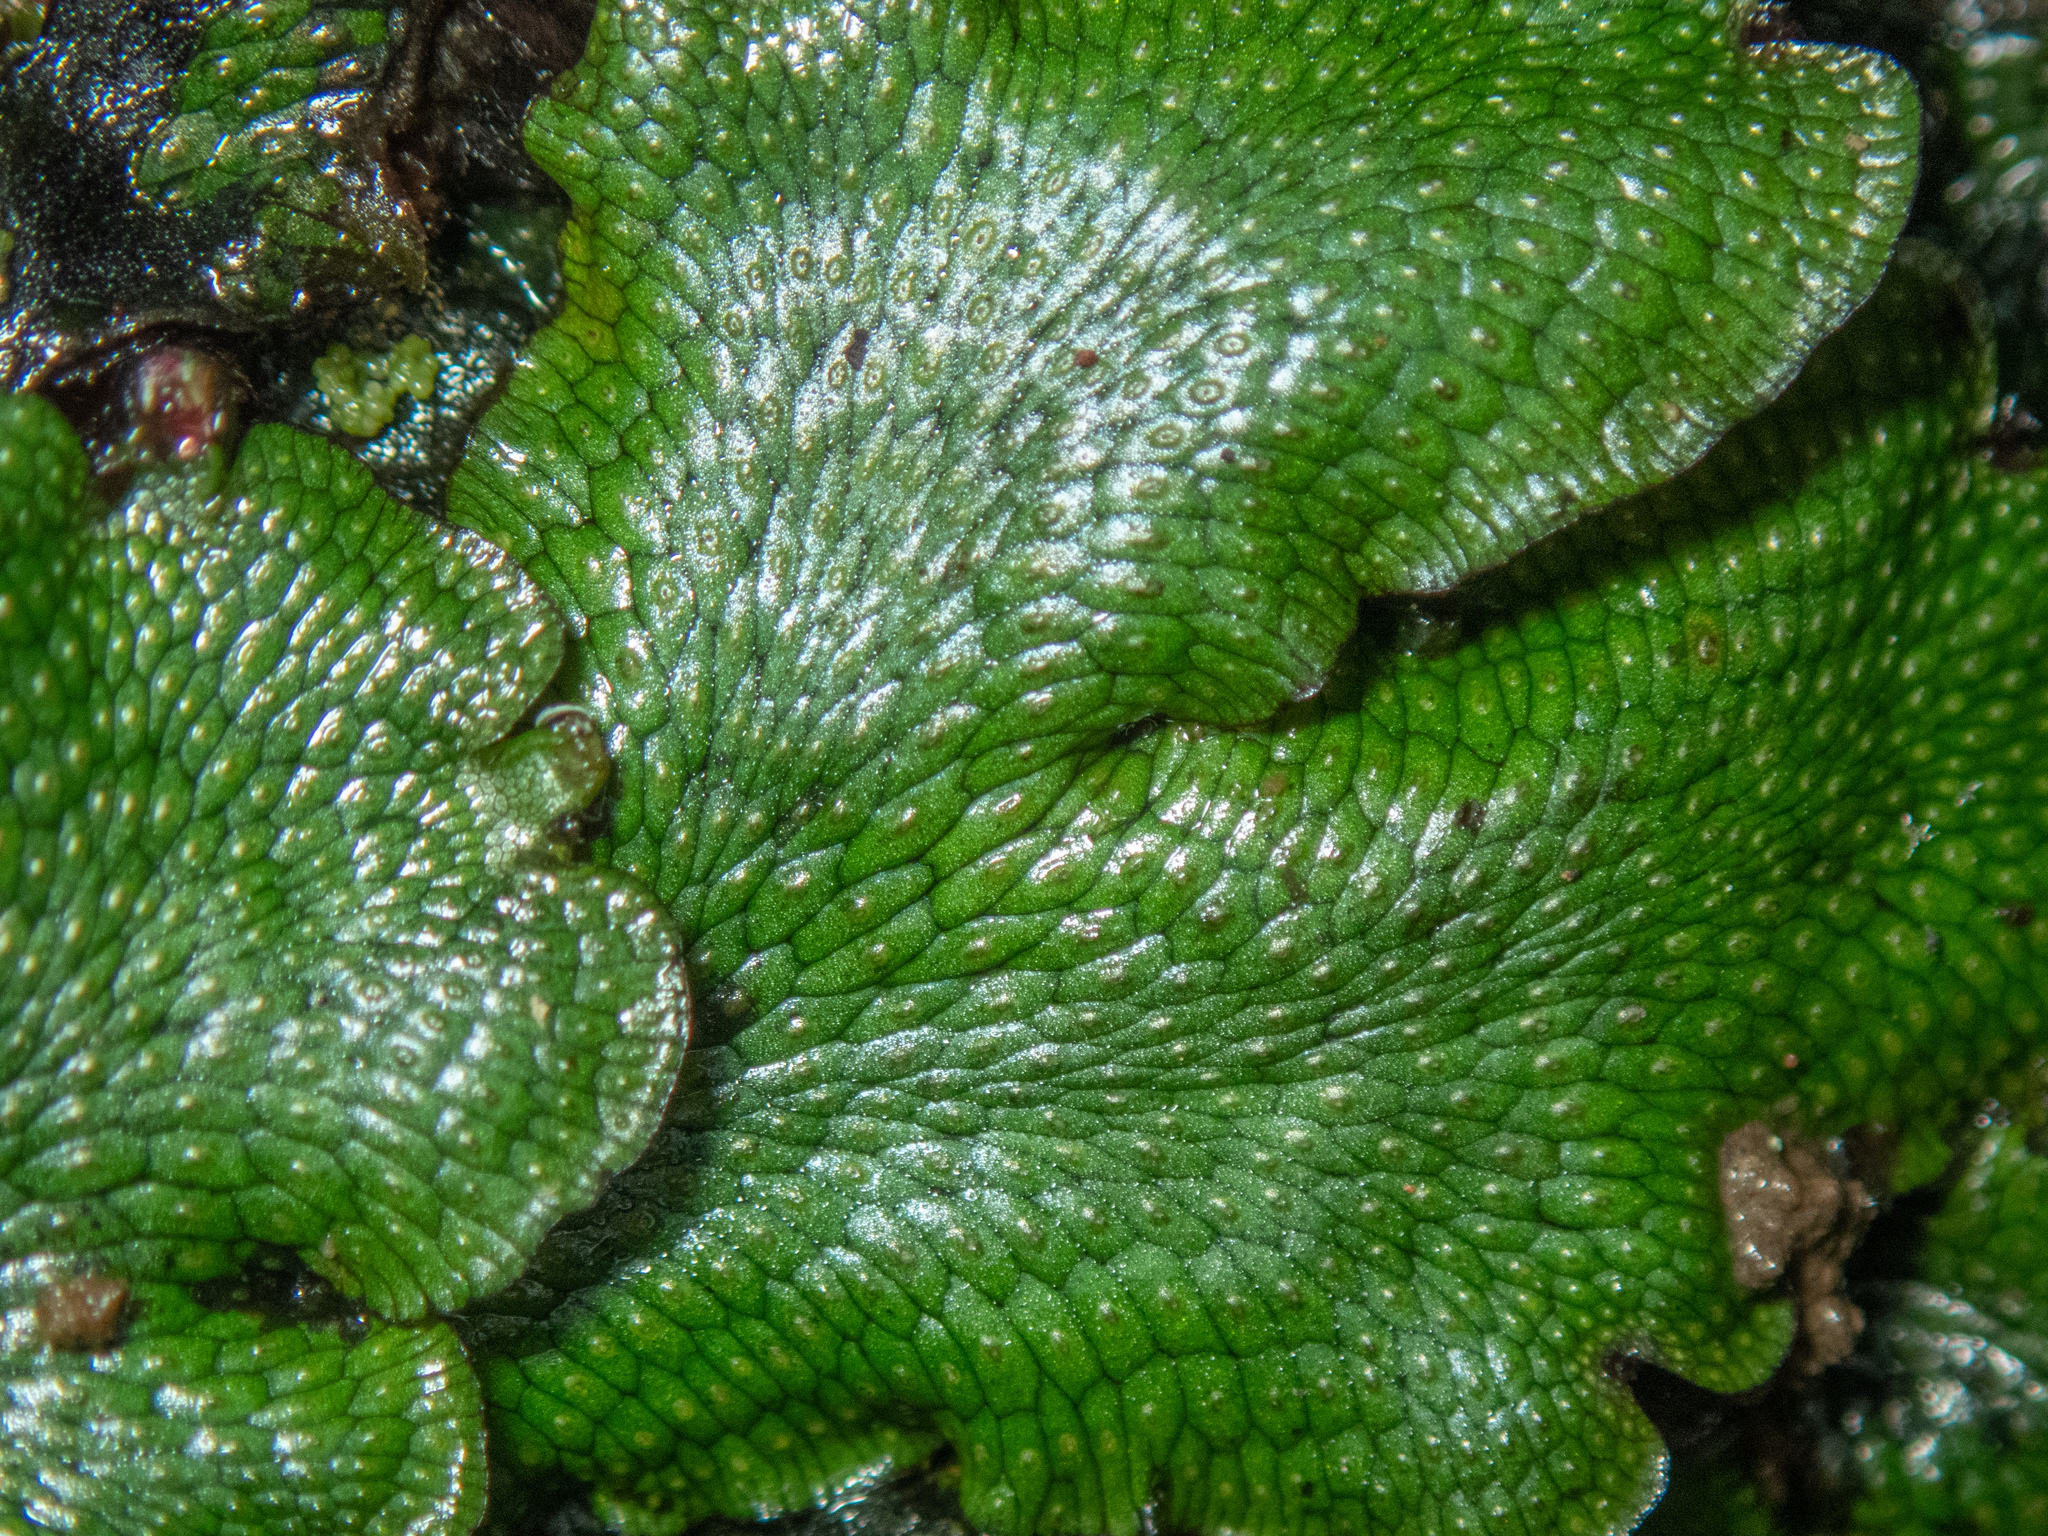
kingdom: Plantae
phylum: Marchantiophyta
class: Marchantiopsida
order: Marchantiales
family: Conocephalaceae
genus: Conocephalum
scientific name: Conocephalum salebrosum
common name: Cat-tongue liverwort
